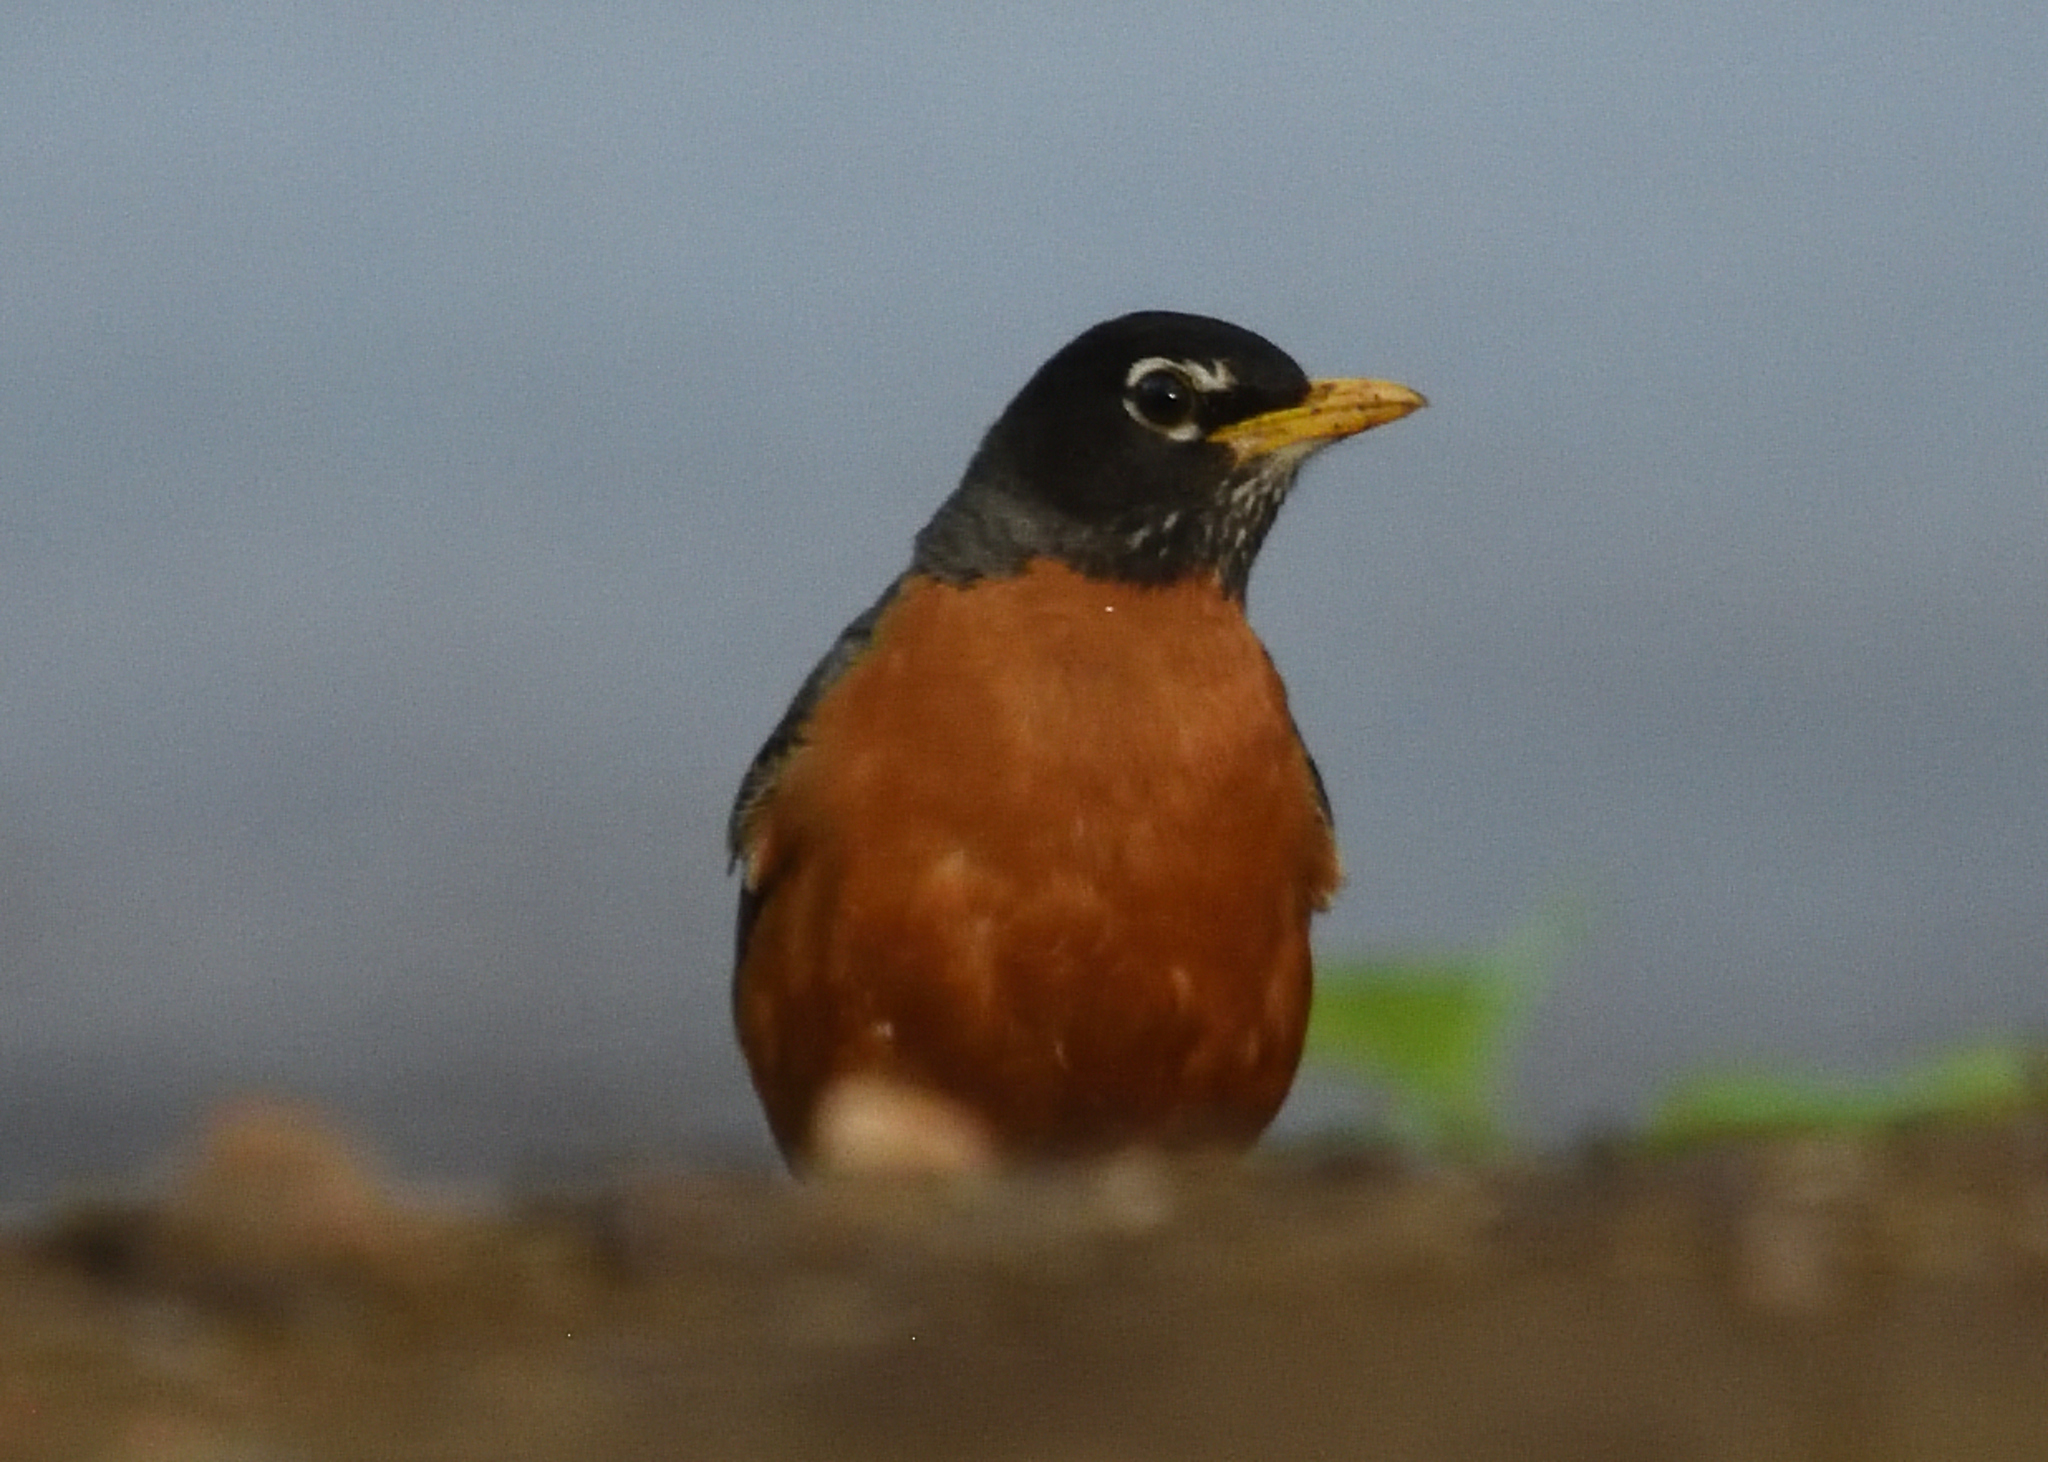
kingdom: Animalia
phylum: Chordata
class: Aves
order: Passeriformes
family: Turdidae
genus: Turdus
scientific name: Turdus migratorius
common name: American robin
